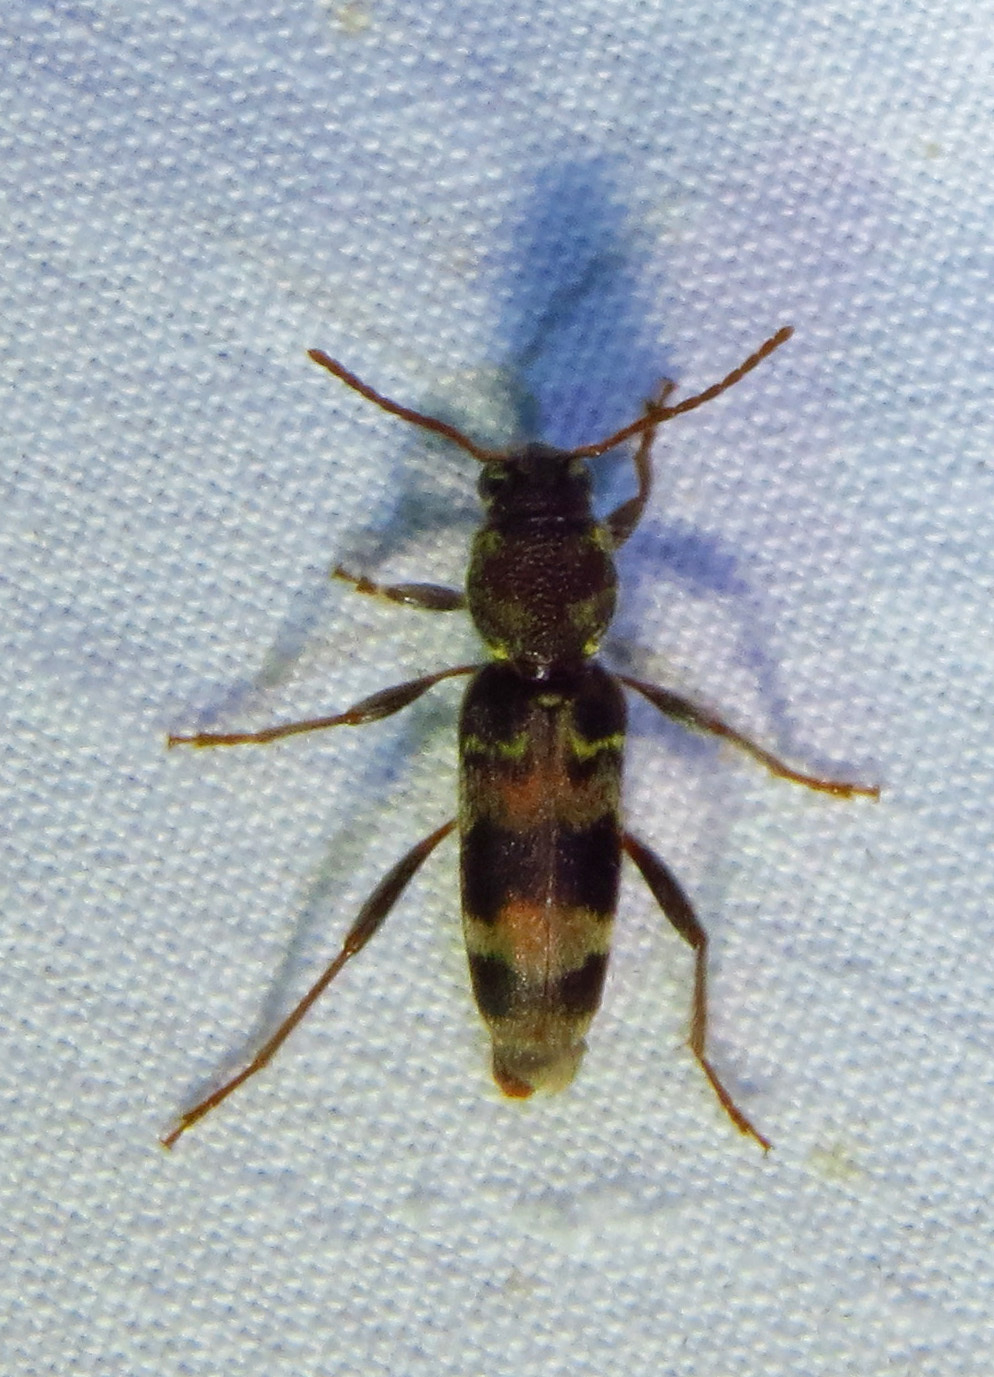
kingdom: Animalia
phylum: Arthropoda
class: Insecta
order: Coleoptera
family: Cerambycidae
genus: Xylotrechus
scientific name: Xylotrechus colonus
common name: Long-horned beetle
